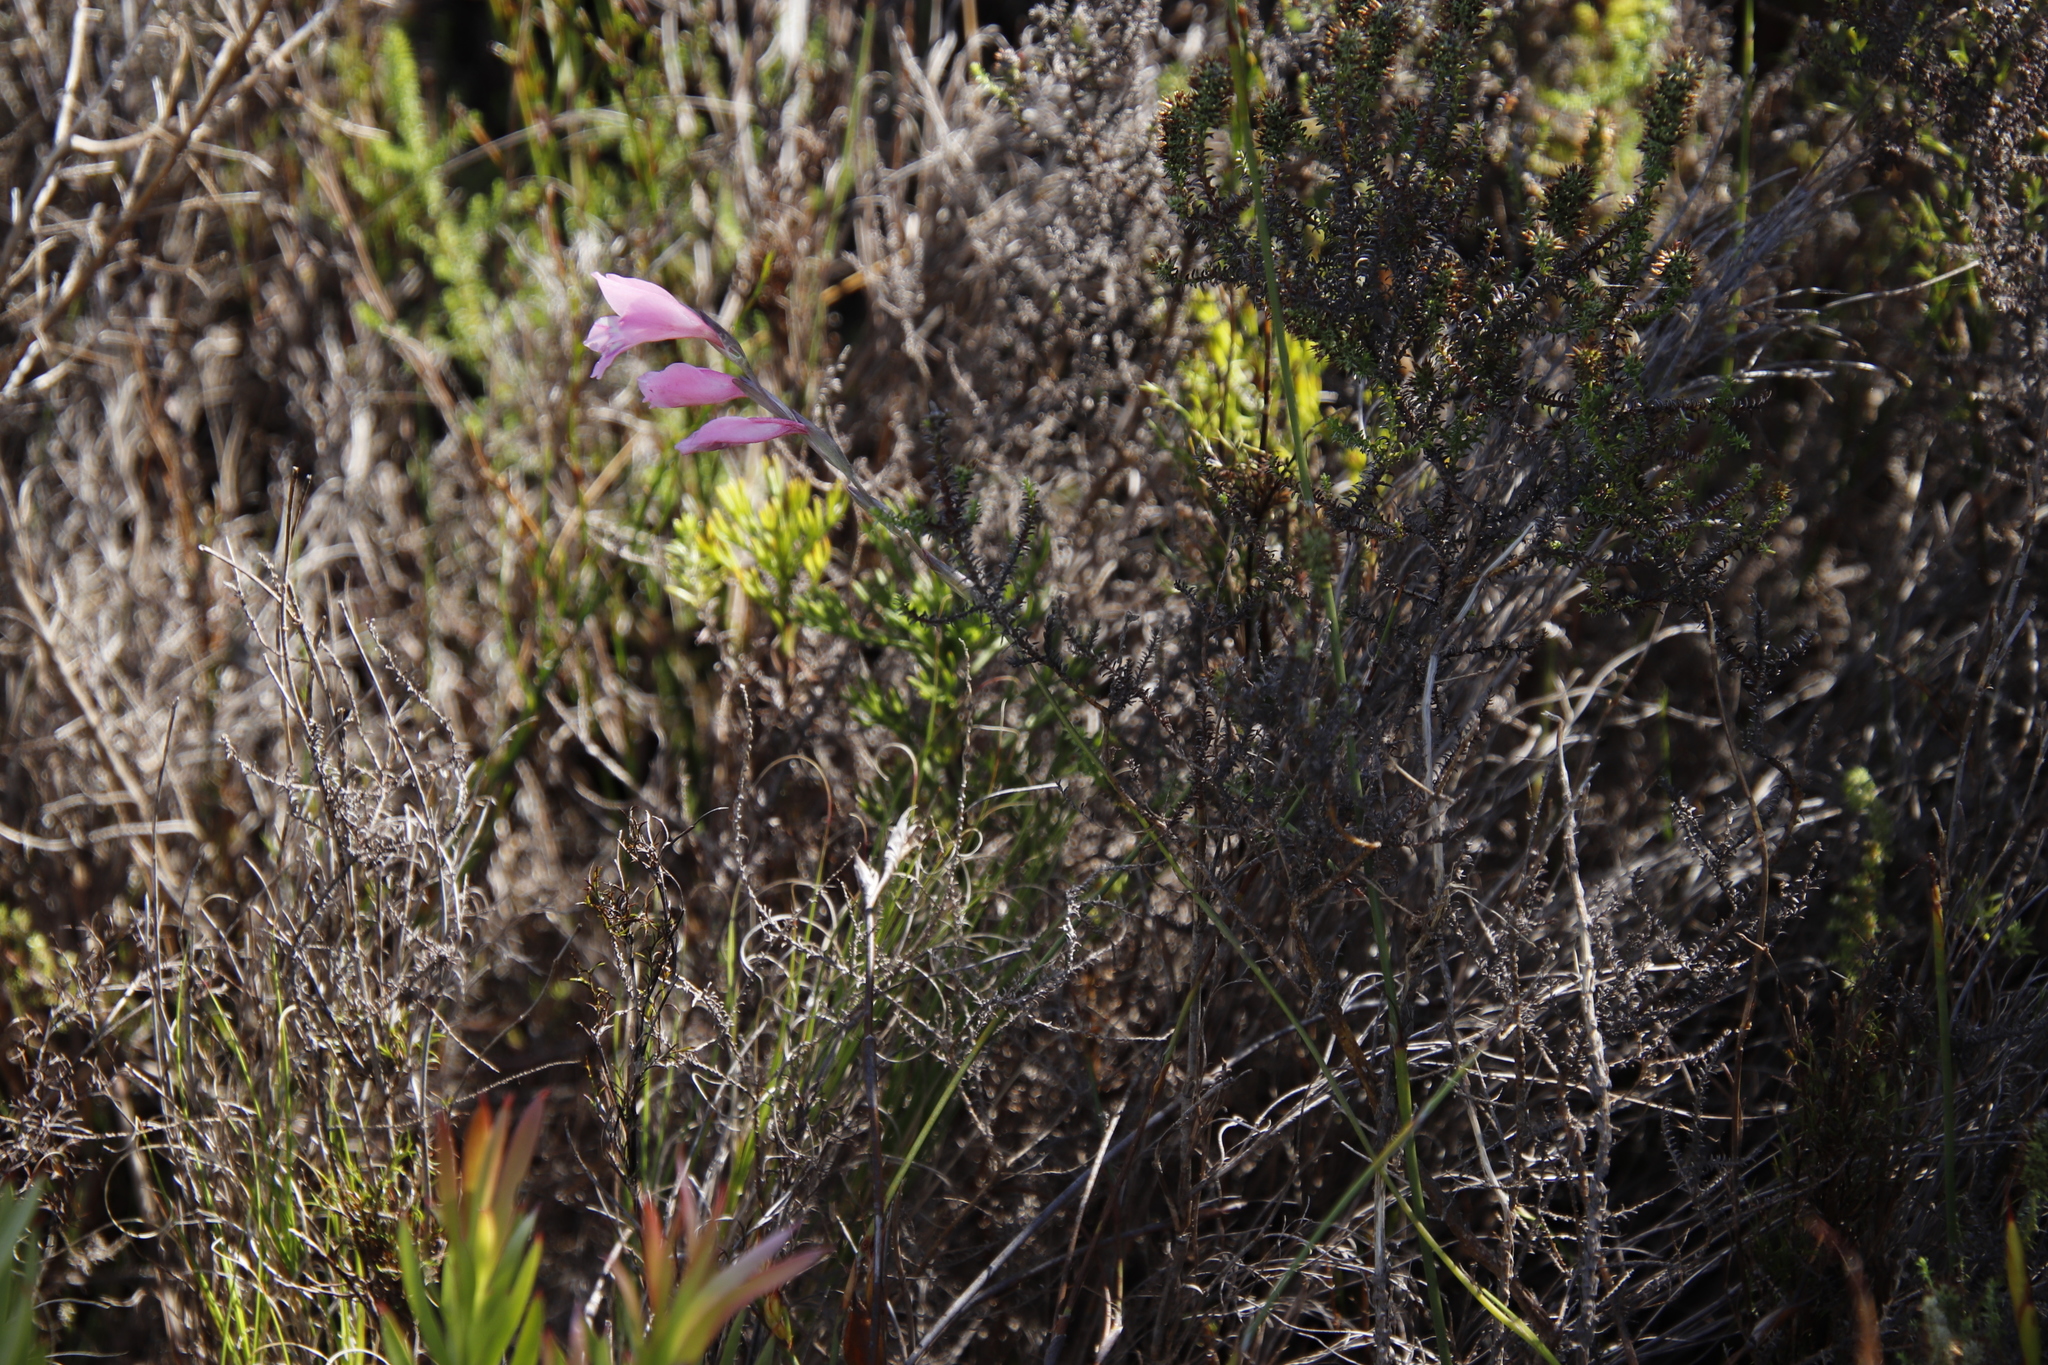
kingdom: Plantae
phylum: Tracheophyta
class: Liliopsida
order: Asparagales
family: Iridaceae
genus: Gladiolus
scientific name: Gladiolus brevifolius
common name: March pypie
